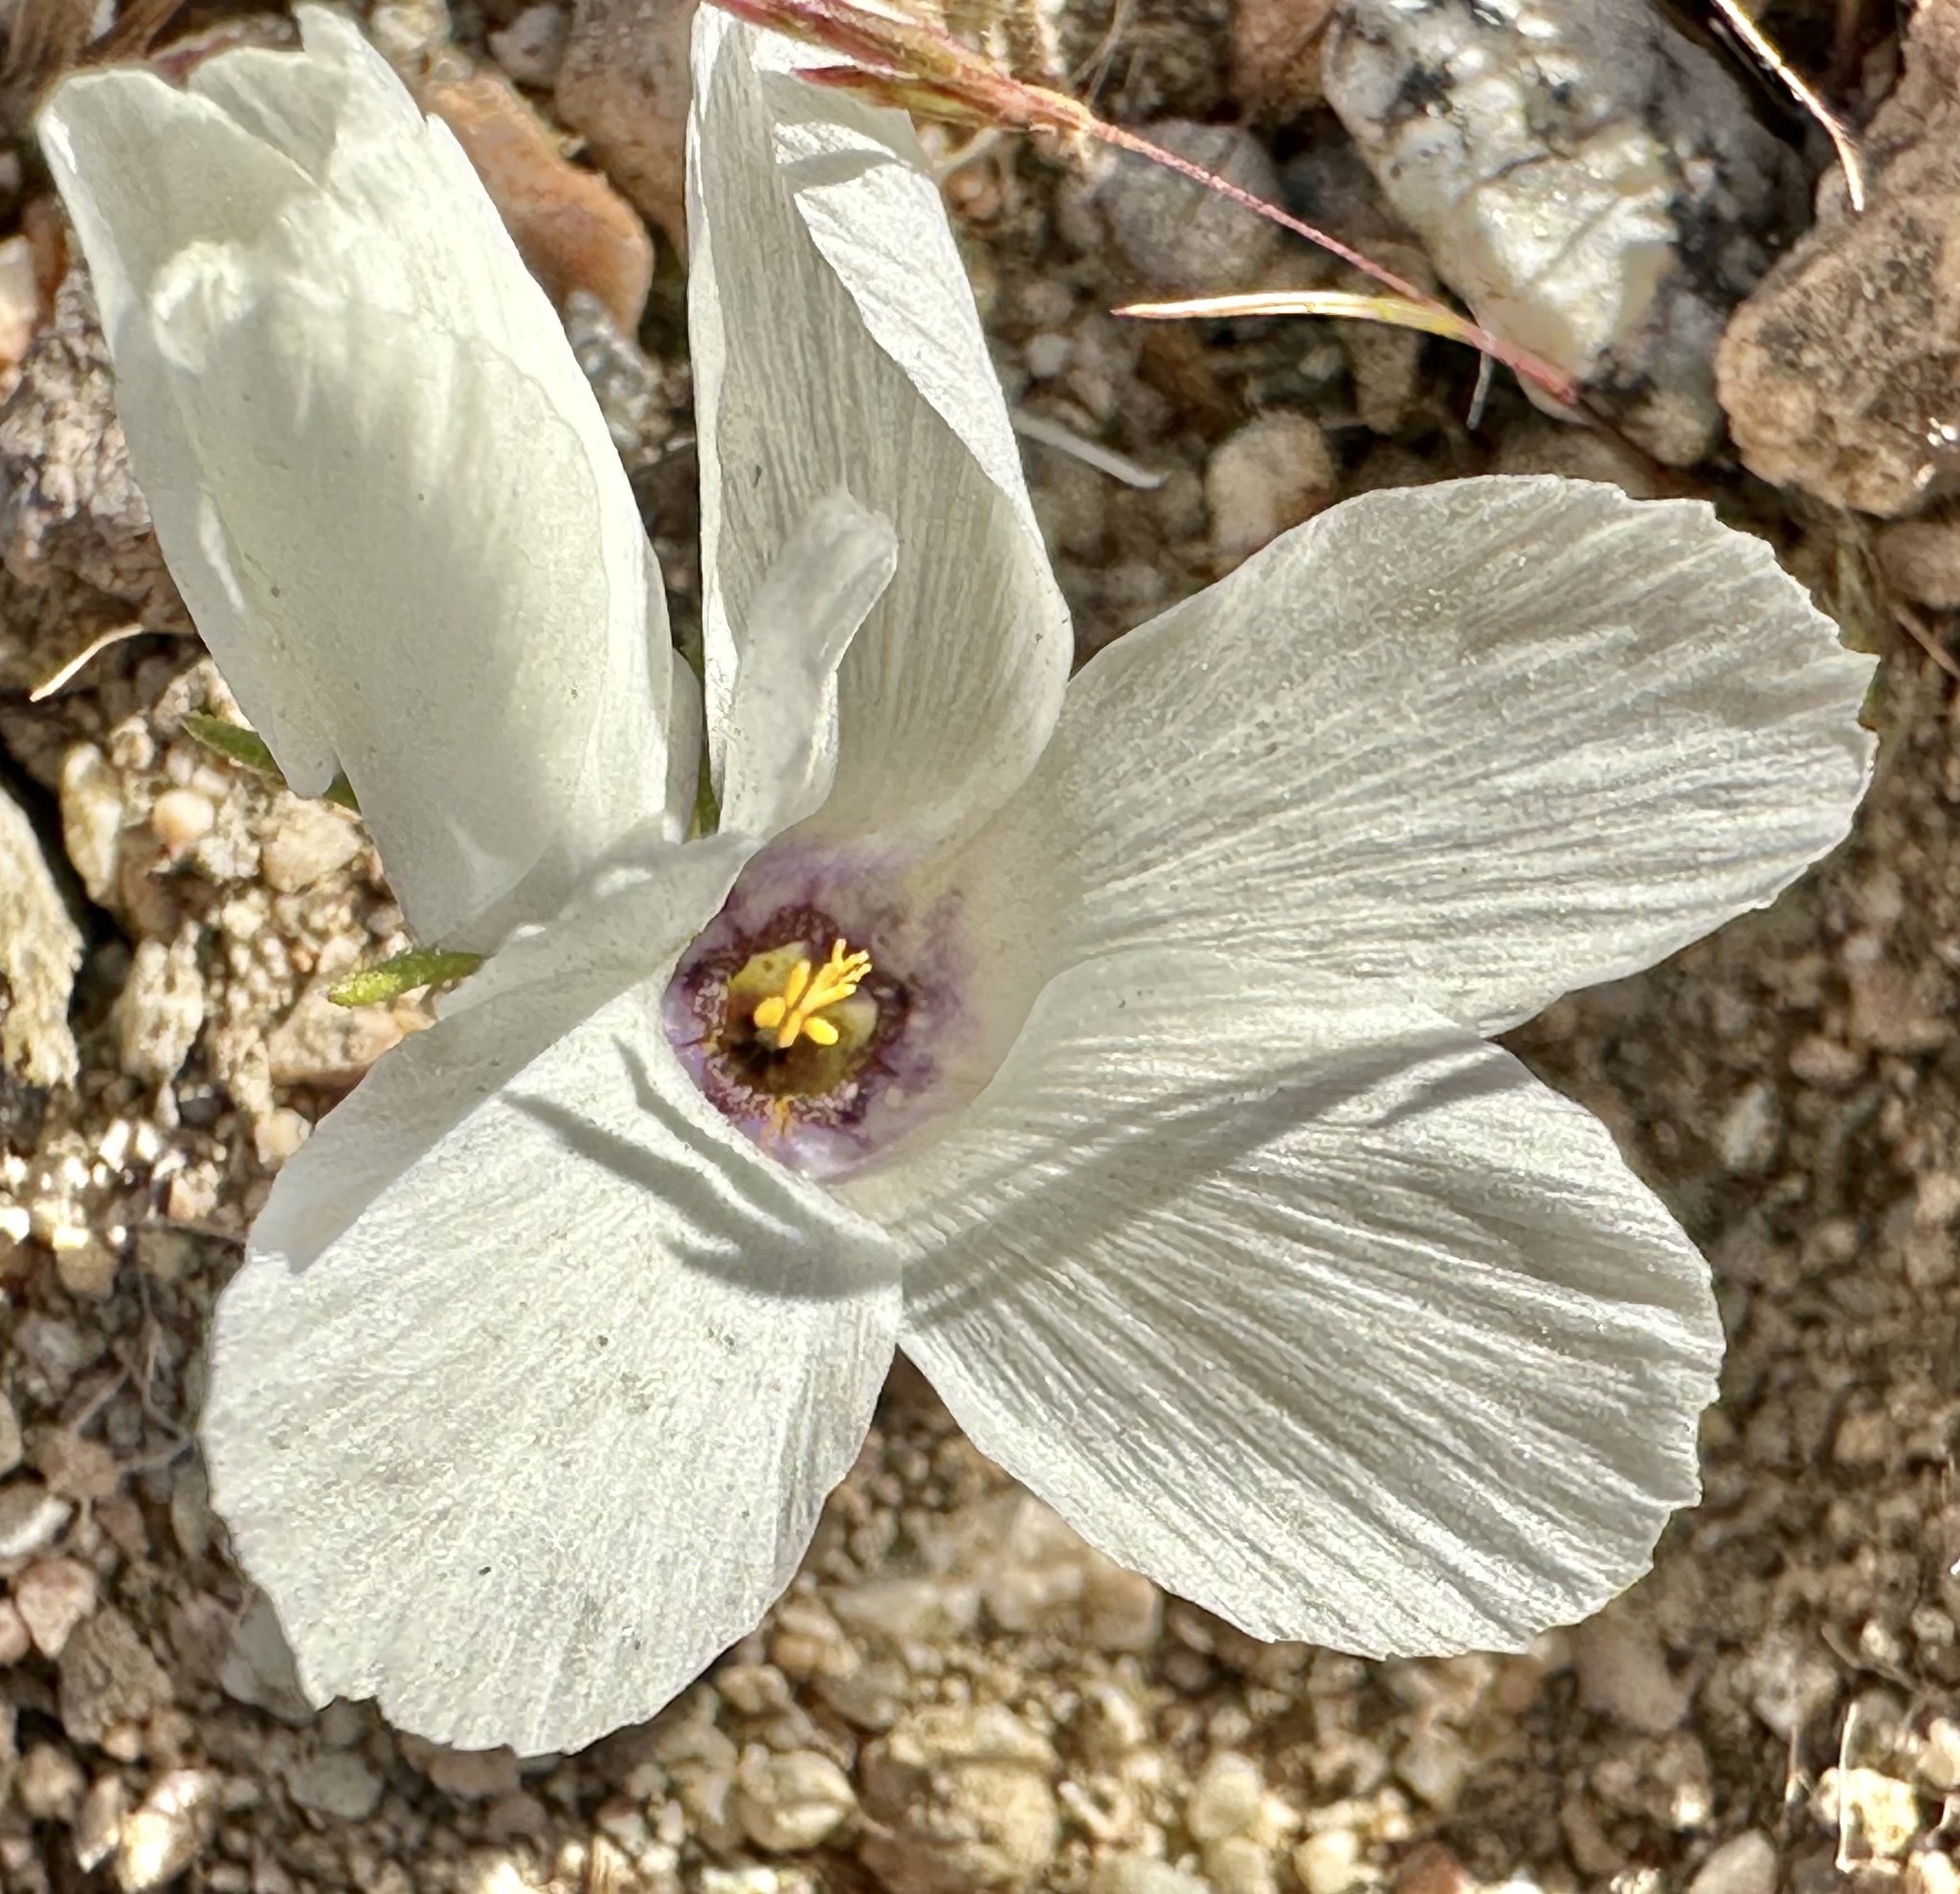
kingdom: Plantae
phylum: Tracheophyta
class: Magnoliopsida
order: Ericales
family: Polemoniaceae
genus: Linanthus
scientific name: Linanthus parryae
